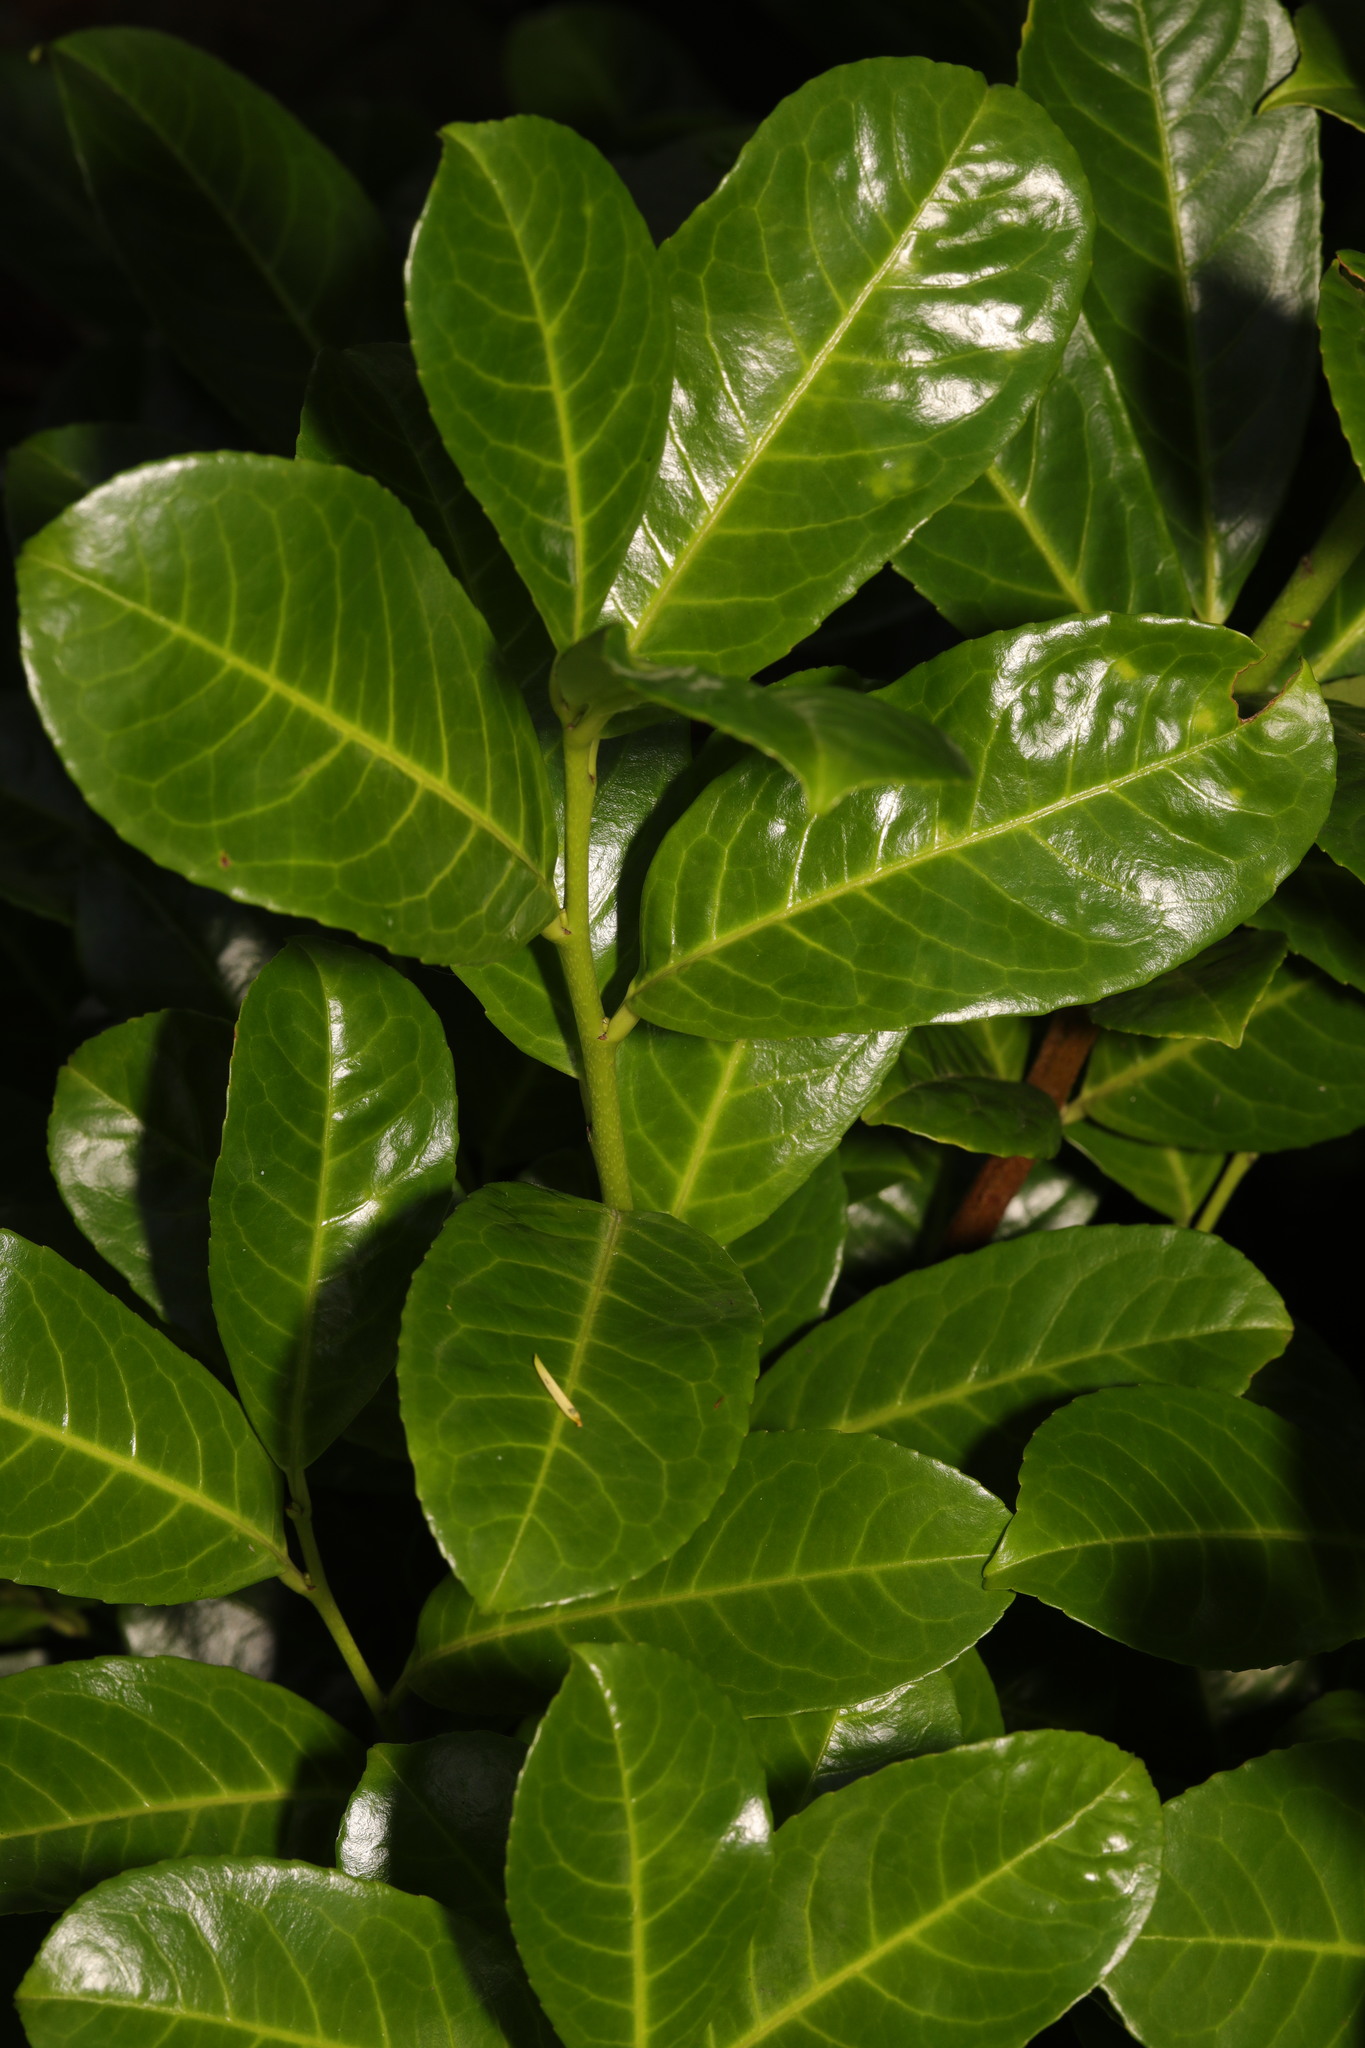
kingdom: Plantae
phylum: Tracheophyta
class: Magnoliopsida
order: Rosales
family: Rosaceae
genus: Prunus
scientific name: Prunus laurocerasus
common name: Cherry laurel
